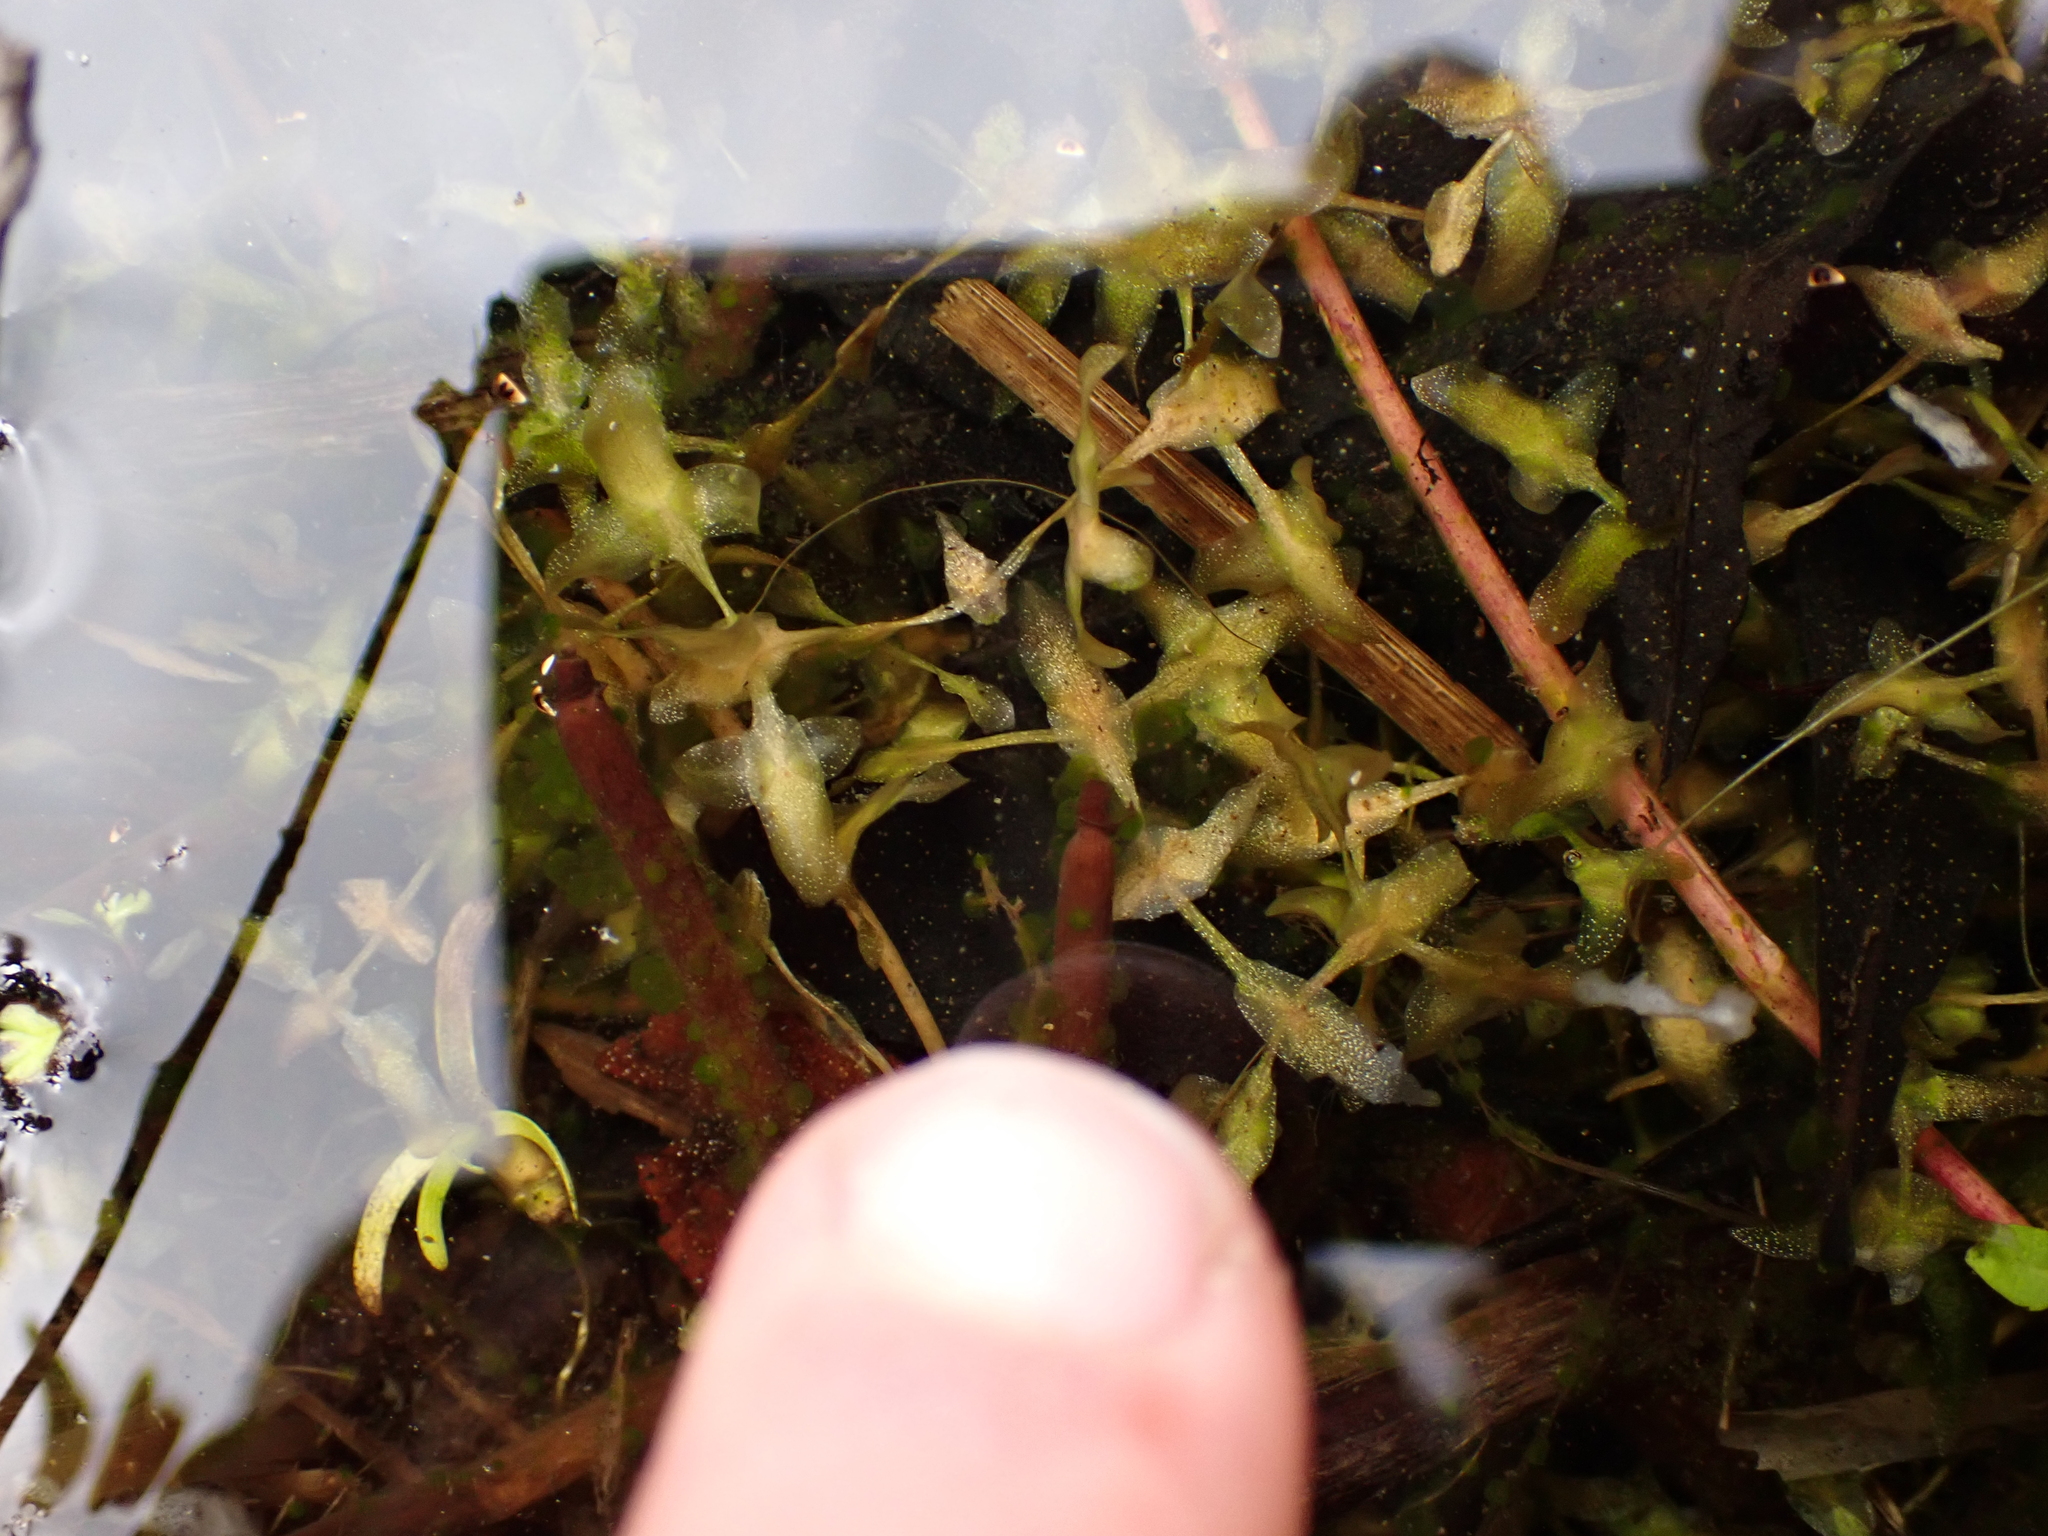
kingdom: Plantae
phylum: Tracheophyta
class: Liliopsida
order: Alismatales
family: Araceae
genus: Lemna
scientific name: Lemna trisulca
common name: Ivy-leaved duckweed
